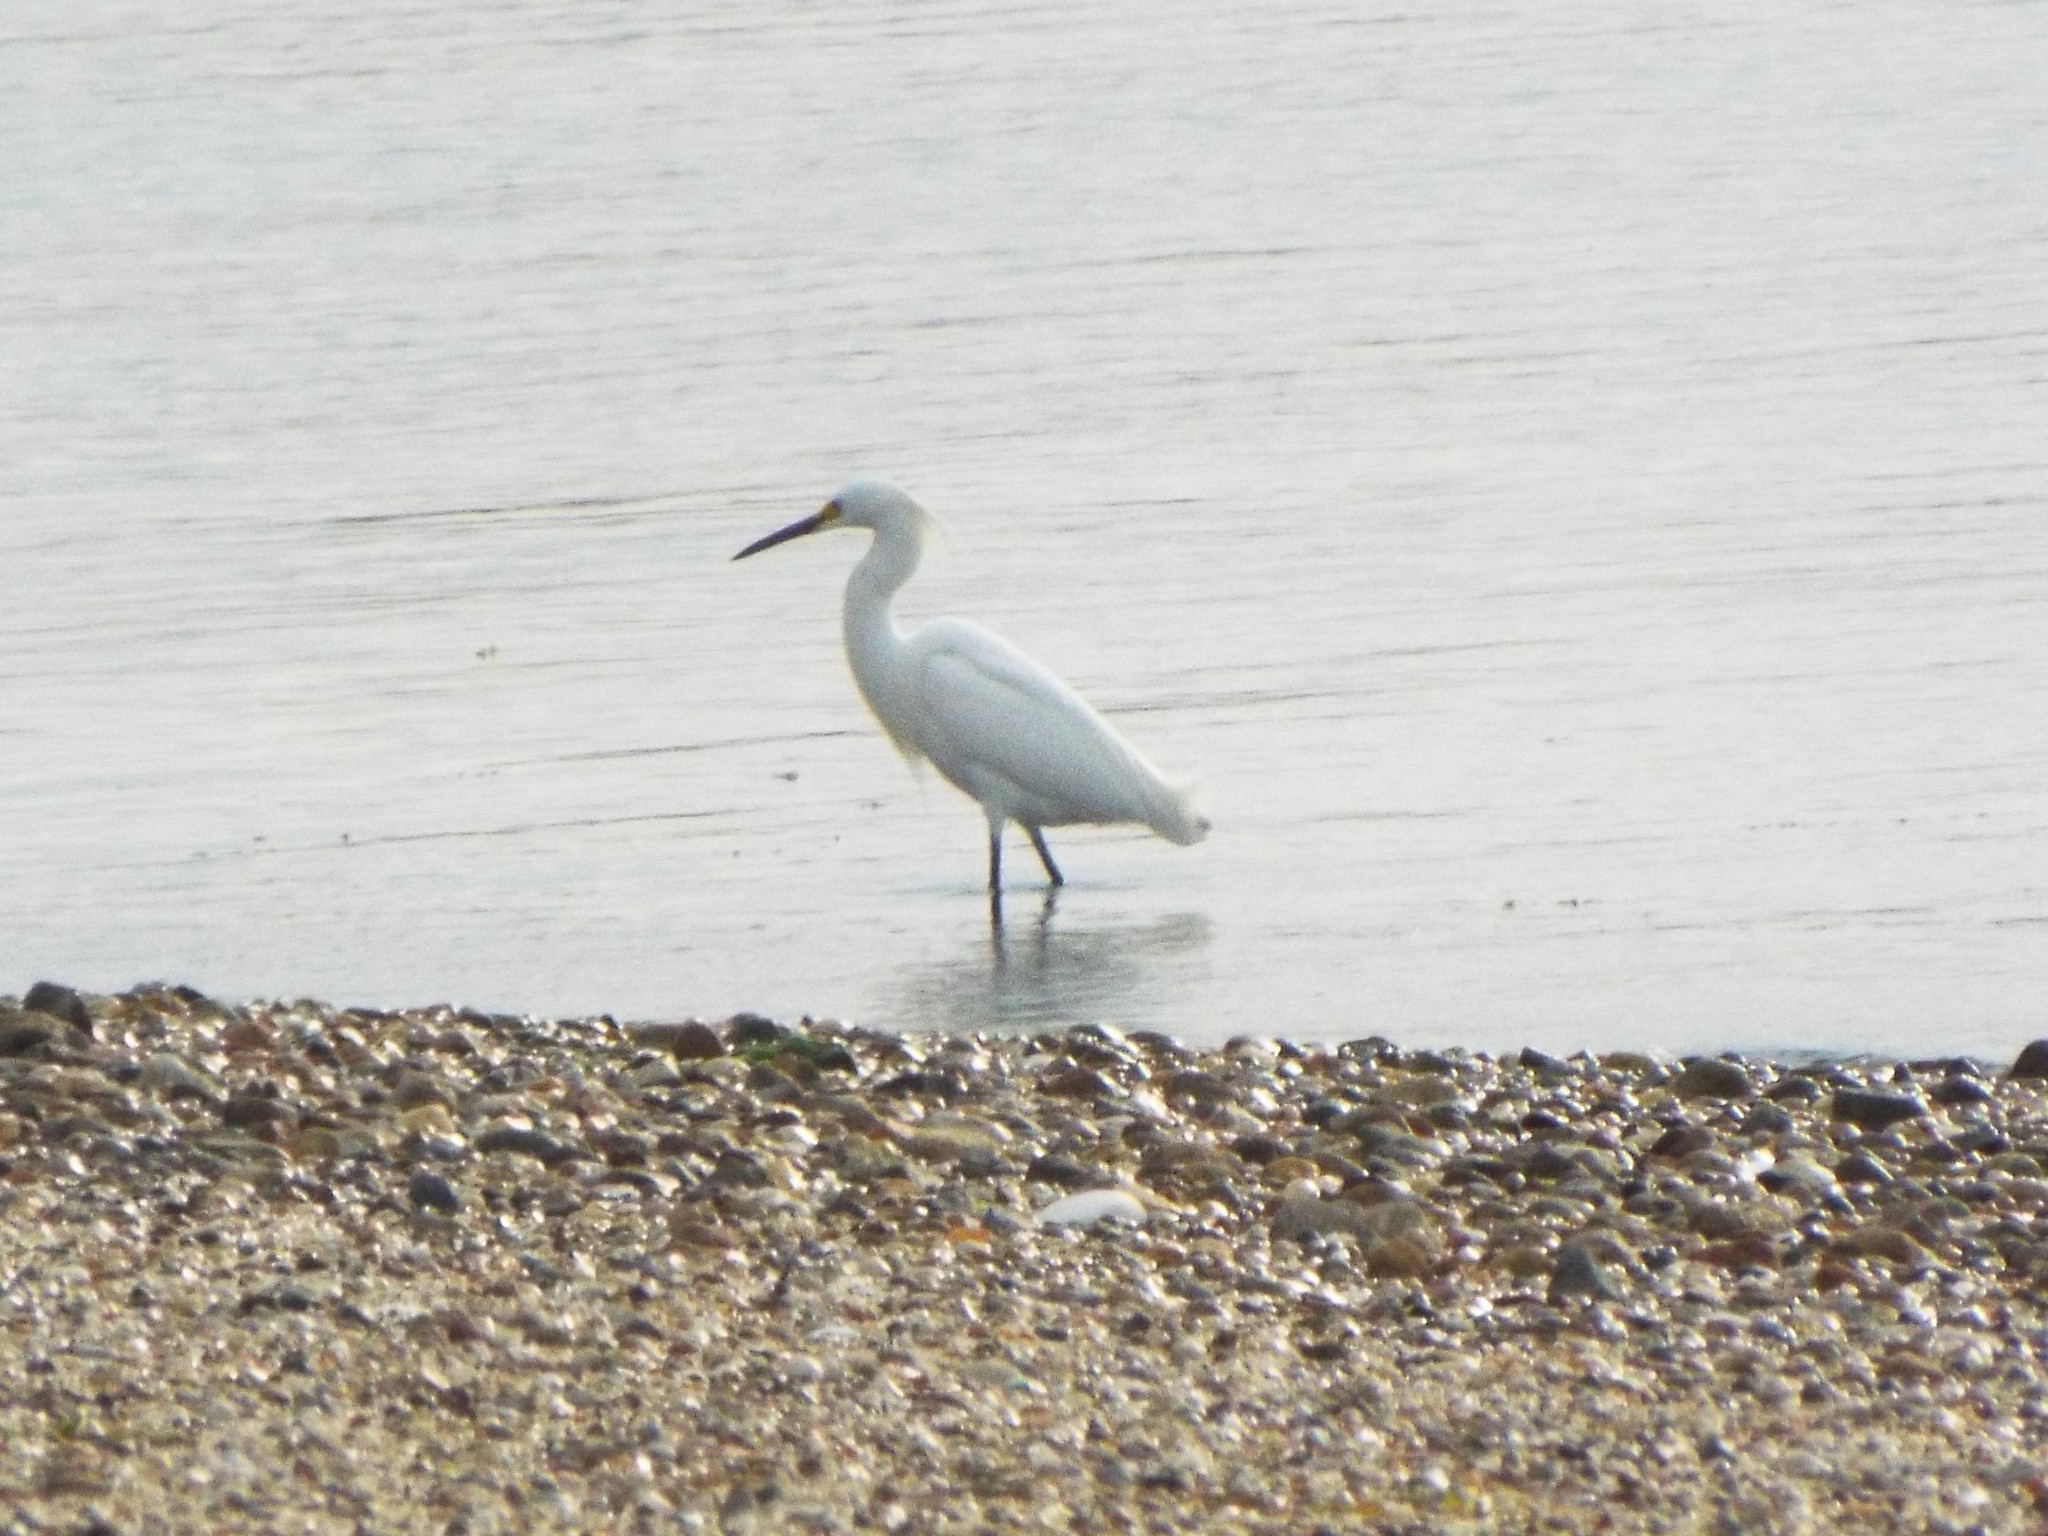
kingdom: Animalia
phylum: Chordata
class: Aves
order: Pelecaniformes
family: Ardeidae
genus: Egretta
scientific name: Egretta thula
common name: Snowy egret
